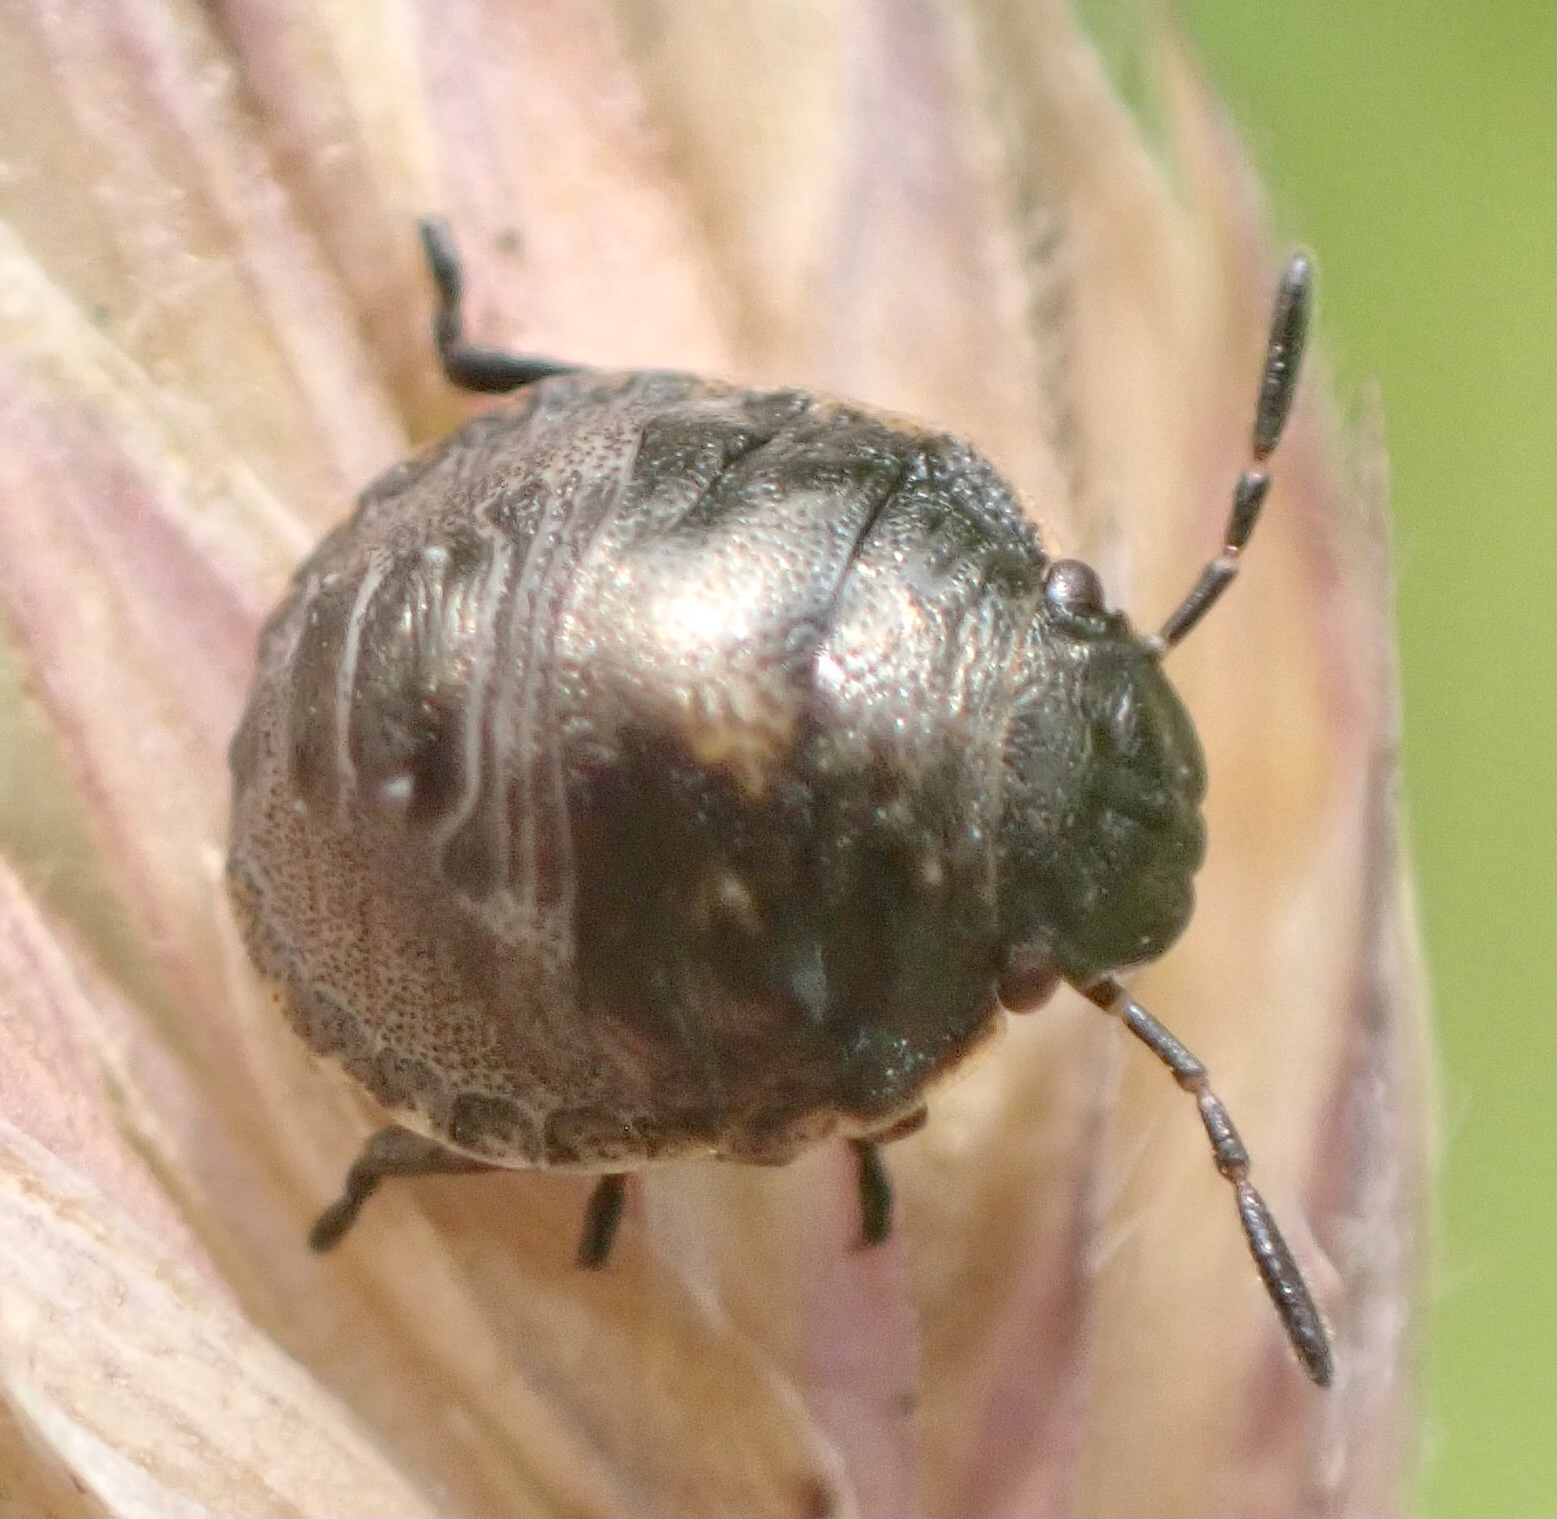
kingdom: Animalia
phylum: Arthropoda
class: Insecta
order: Hemiptera
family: Scutelleridae
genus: Eurygaster
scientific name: Eurygaster testudinaria
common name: Tortoise bug
